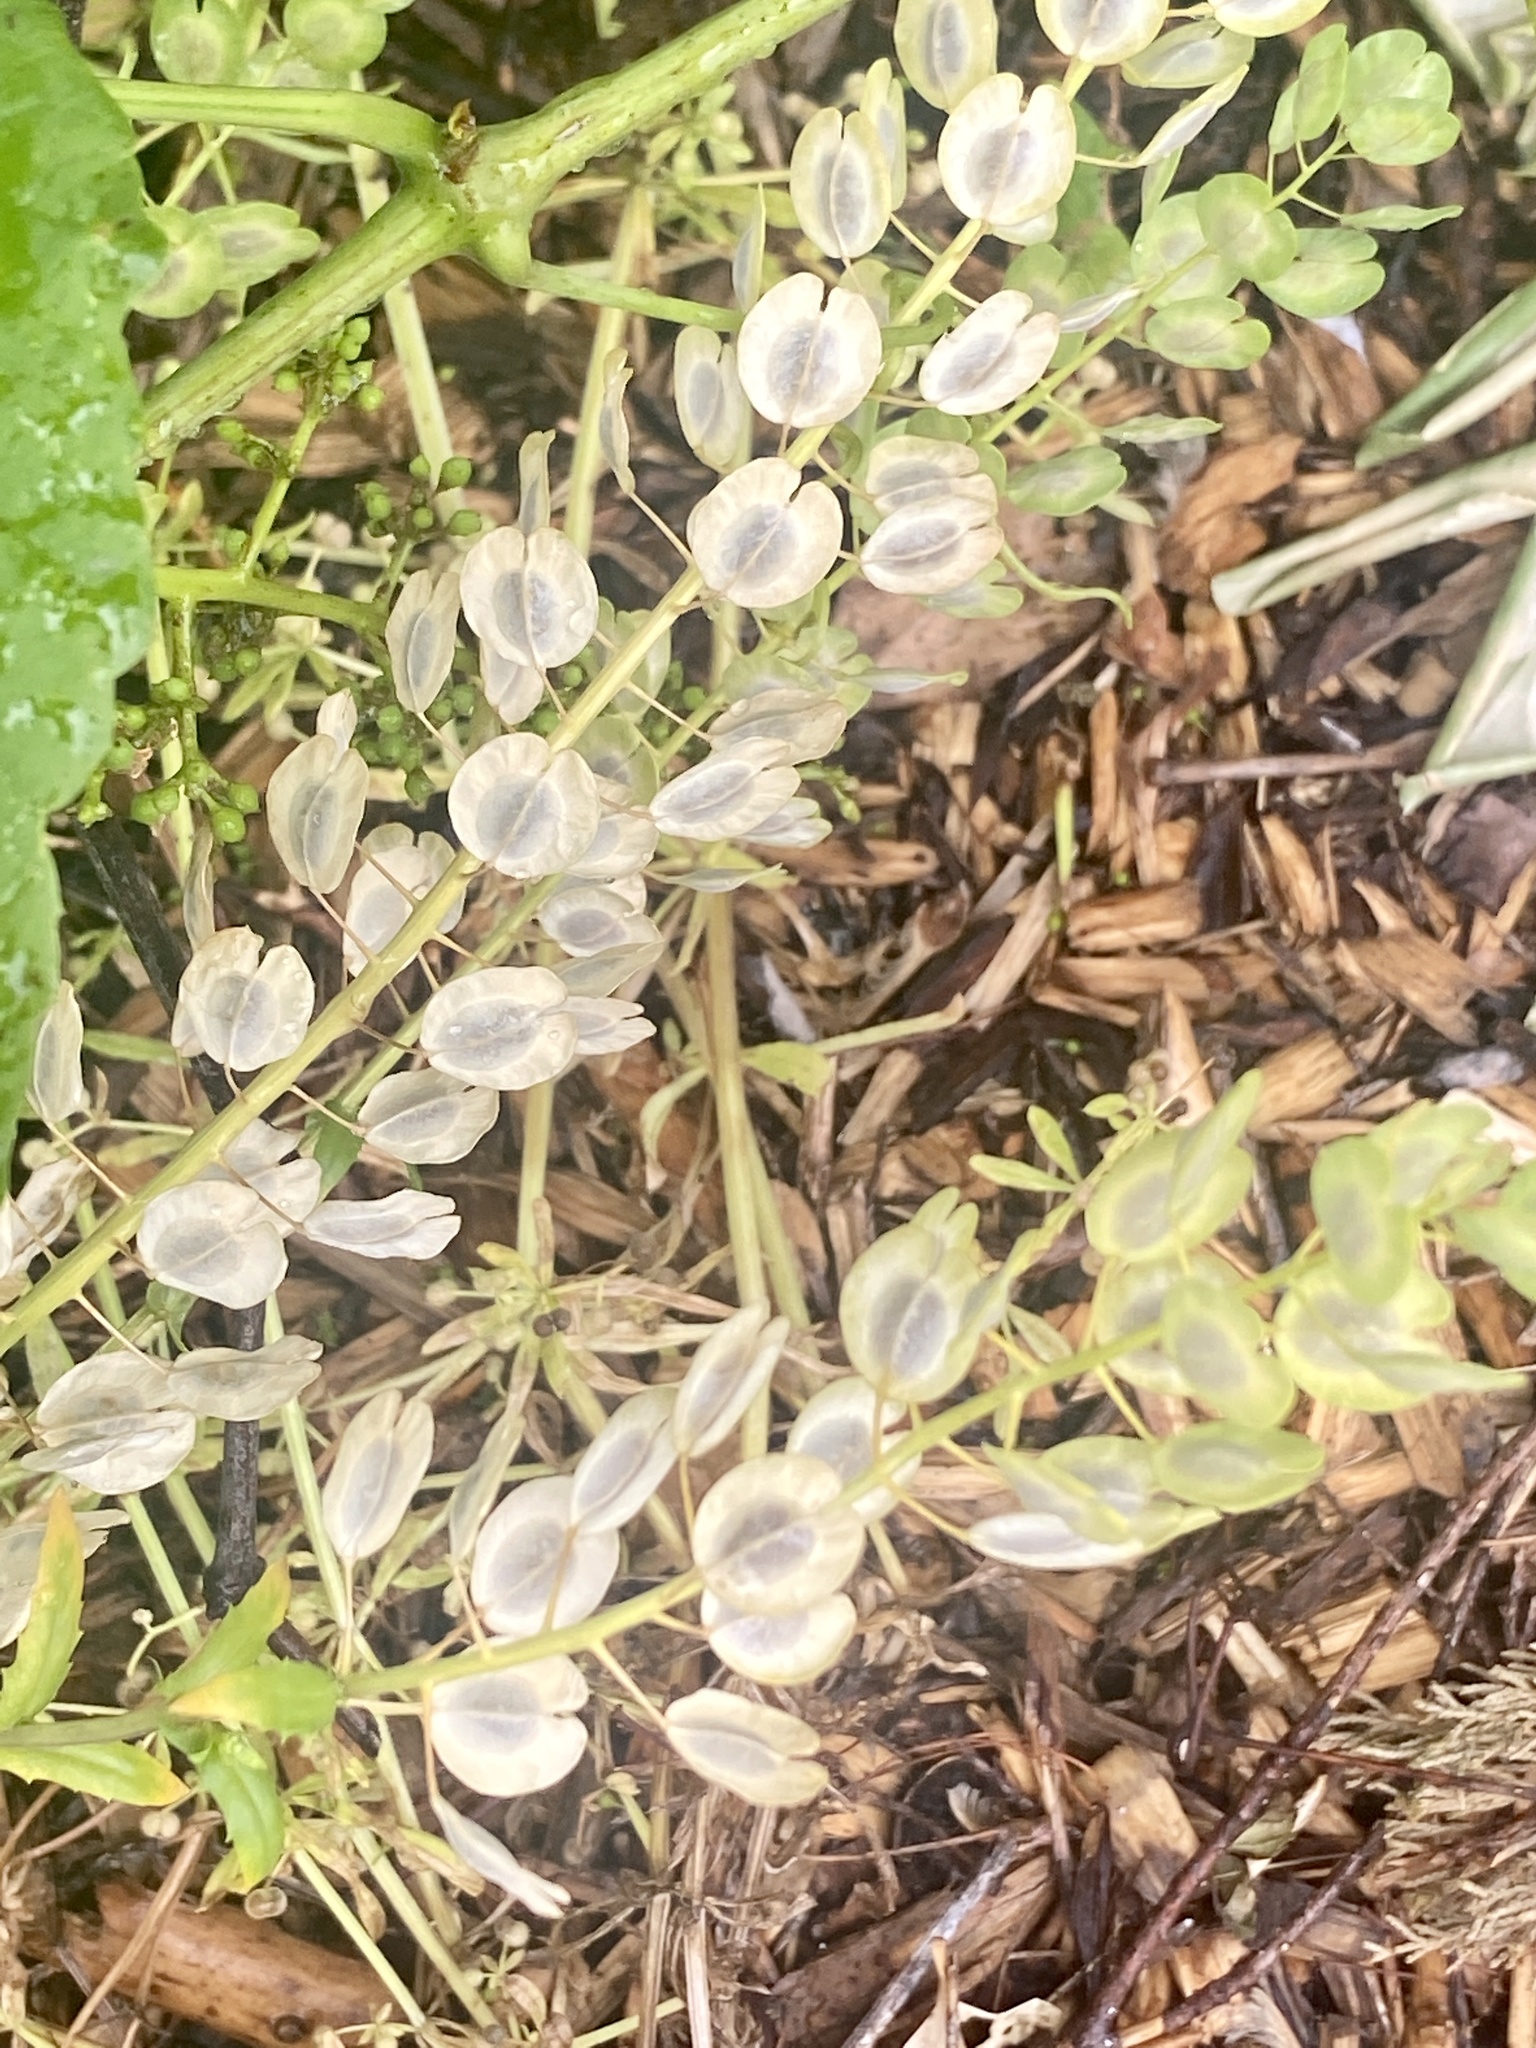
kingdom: Plantae
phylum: Tracheophyta
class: Magnoliopsida
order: Brassicales
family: Brassicaceae
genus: Thlaspi
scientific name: Thlaspi arvense
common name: Field pennycress
